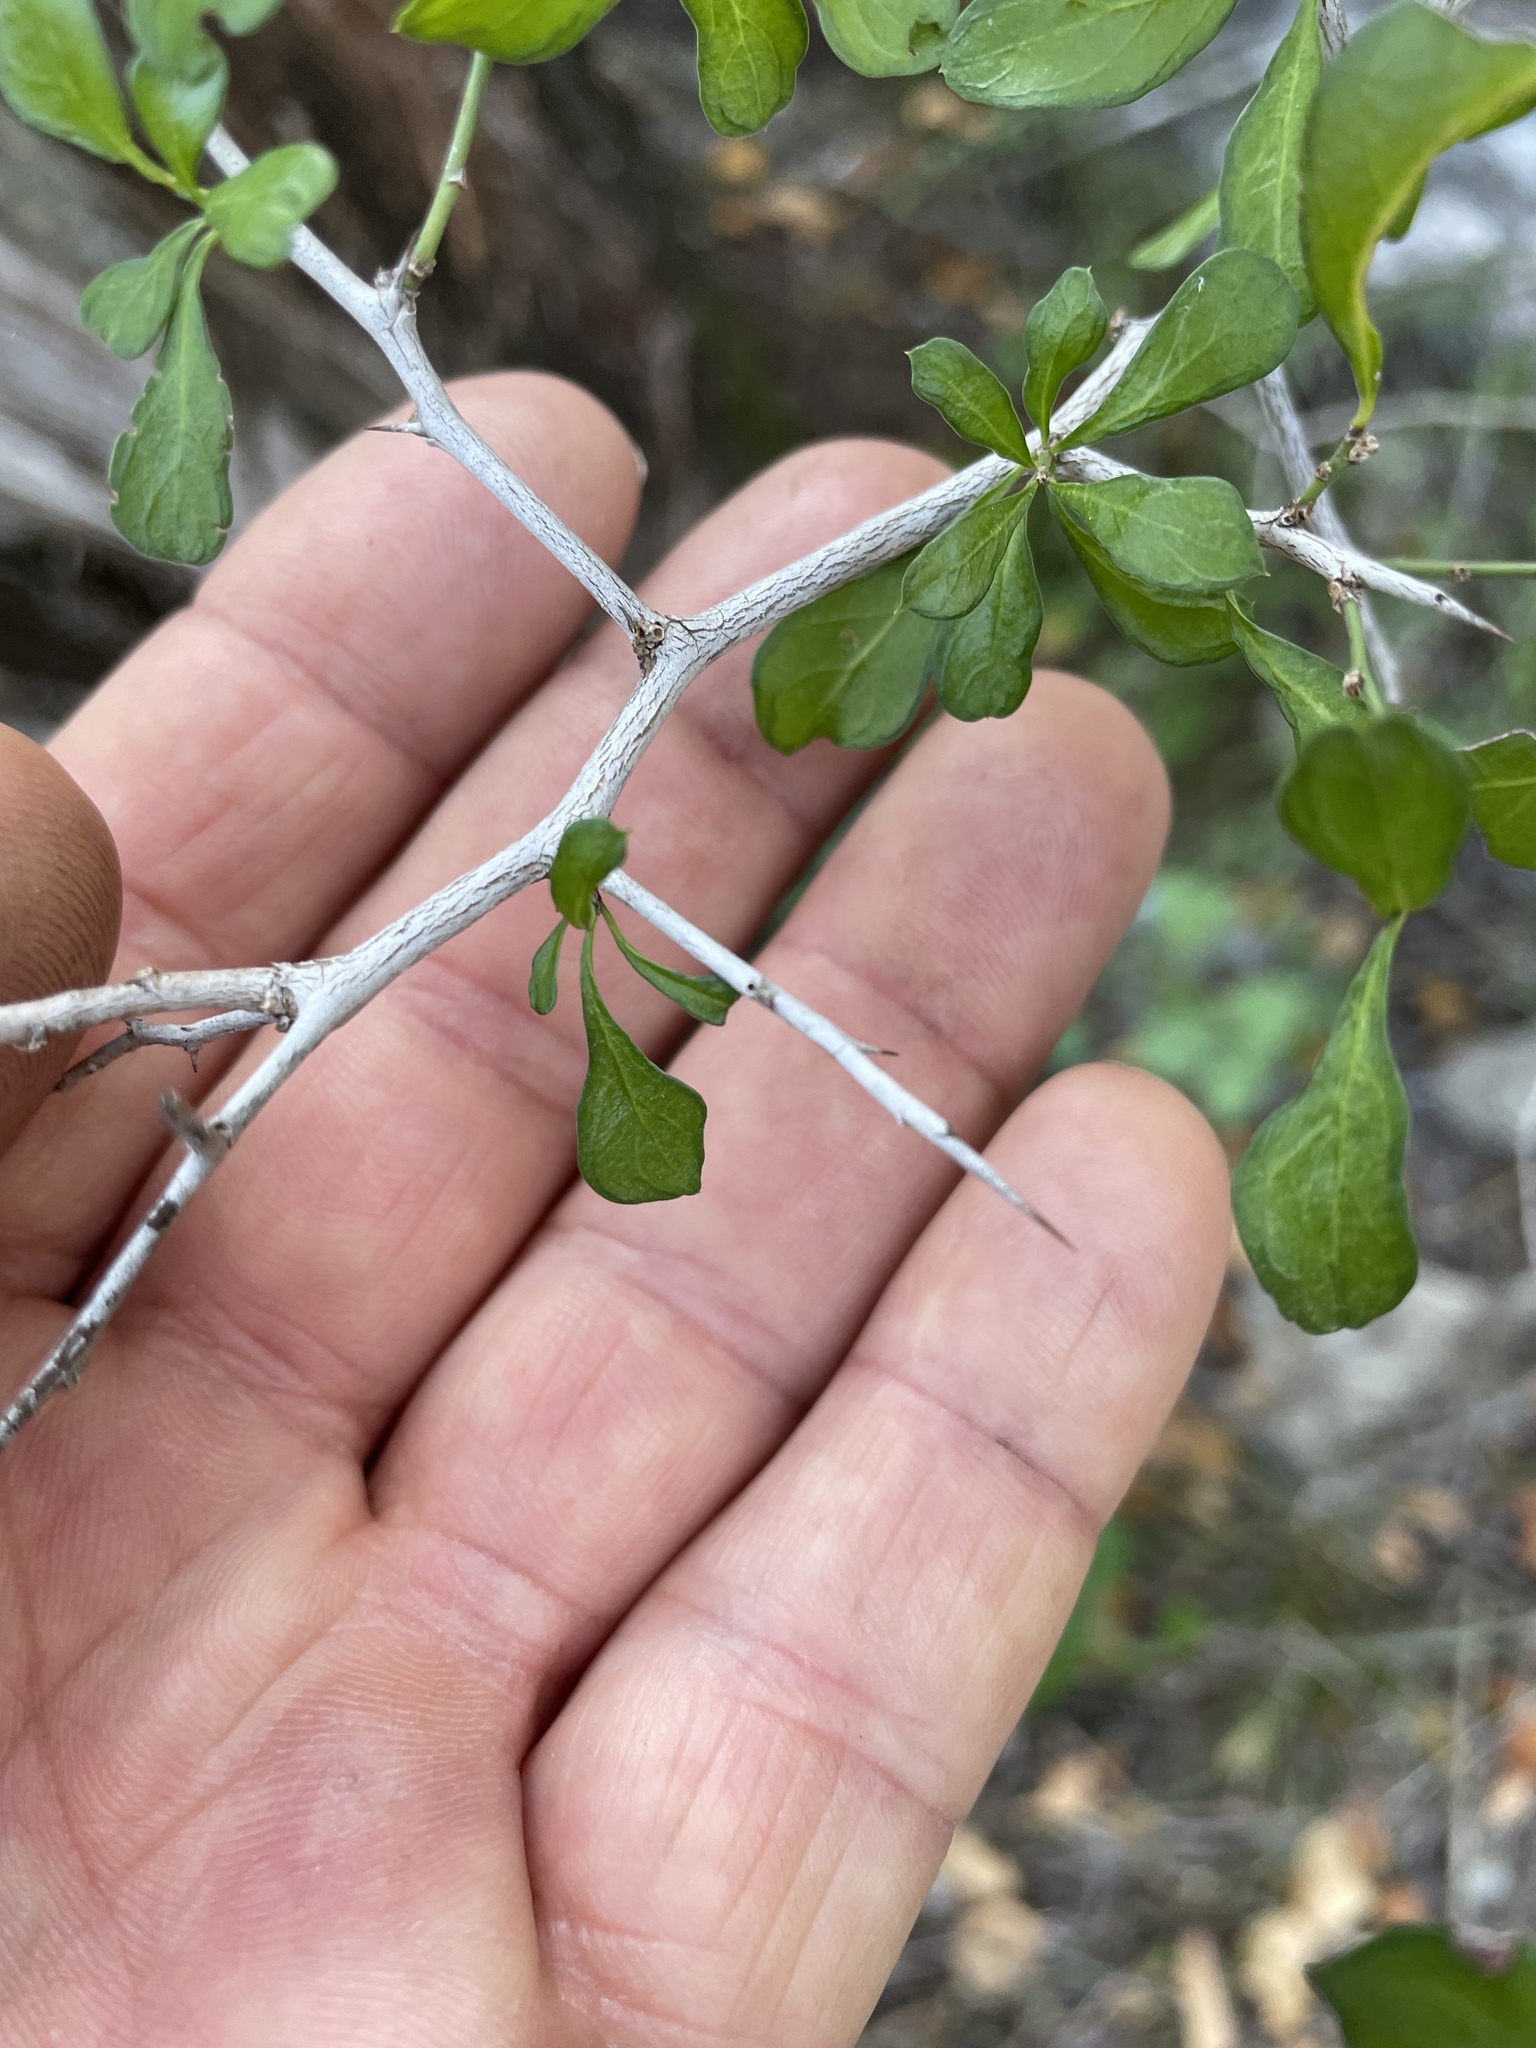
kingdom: Plantae
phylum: Tracheophyta
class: Magnoliopsida
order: Rosales
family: Rhamnaceae
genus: Condalia
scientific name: Condalia hookeri
